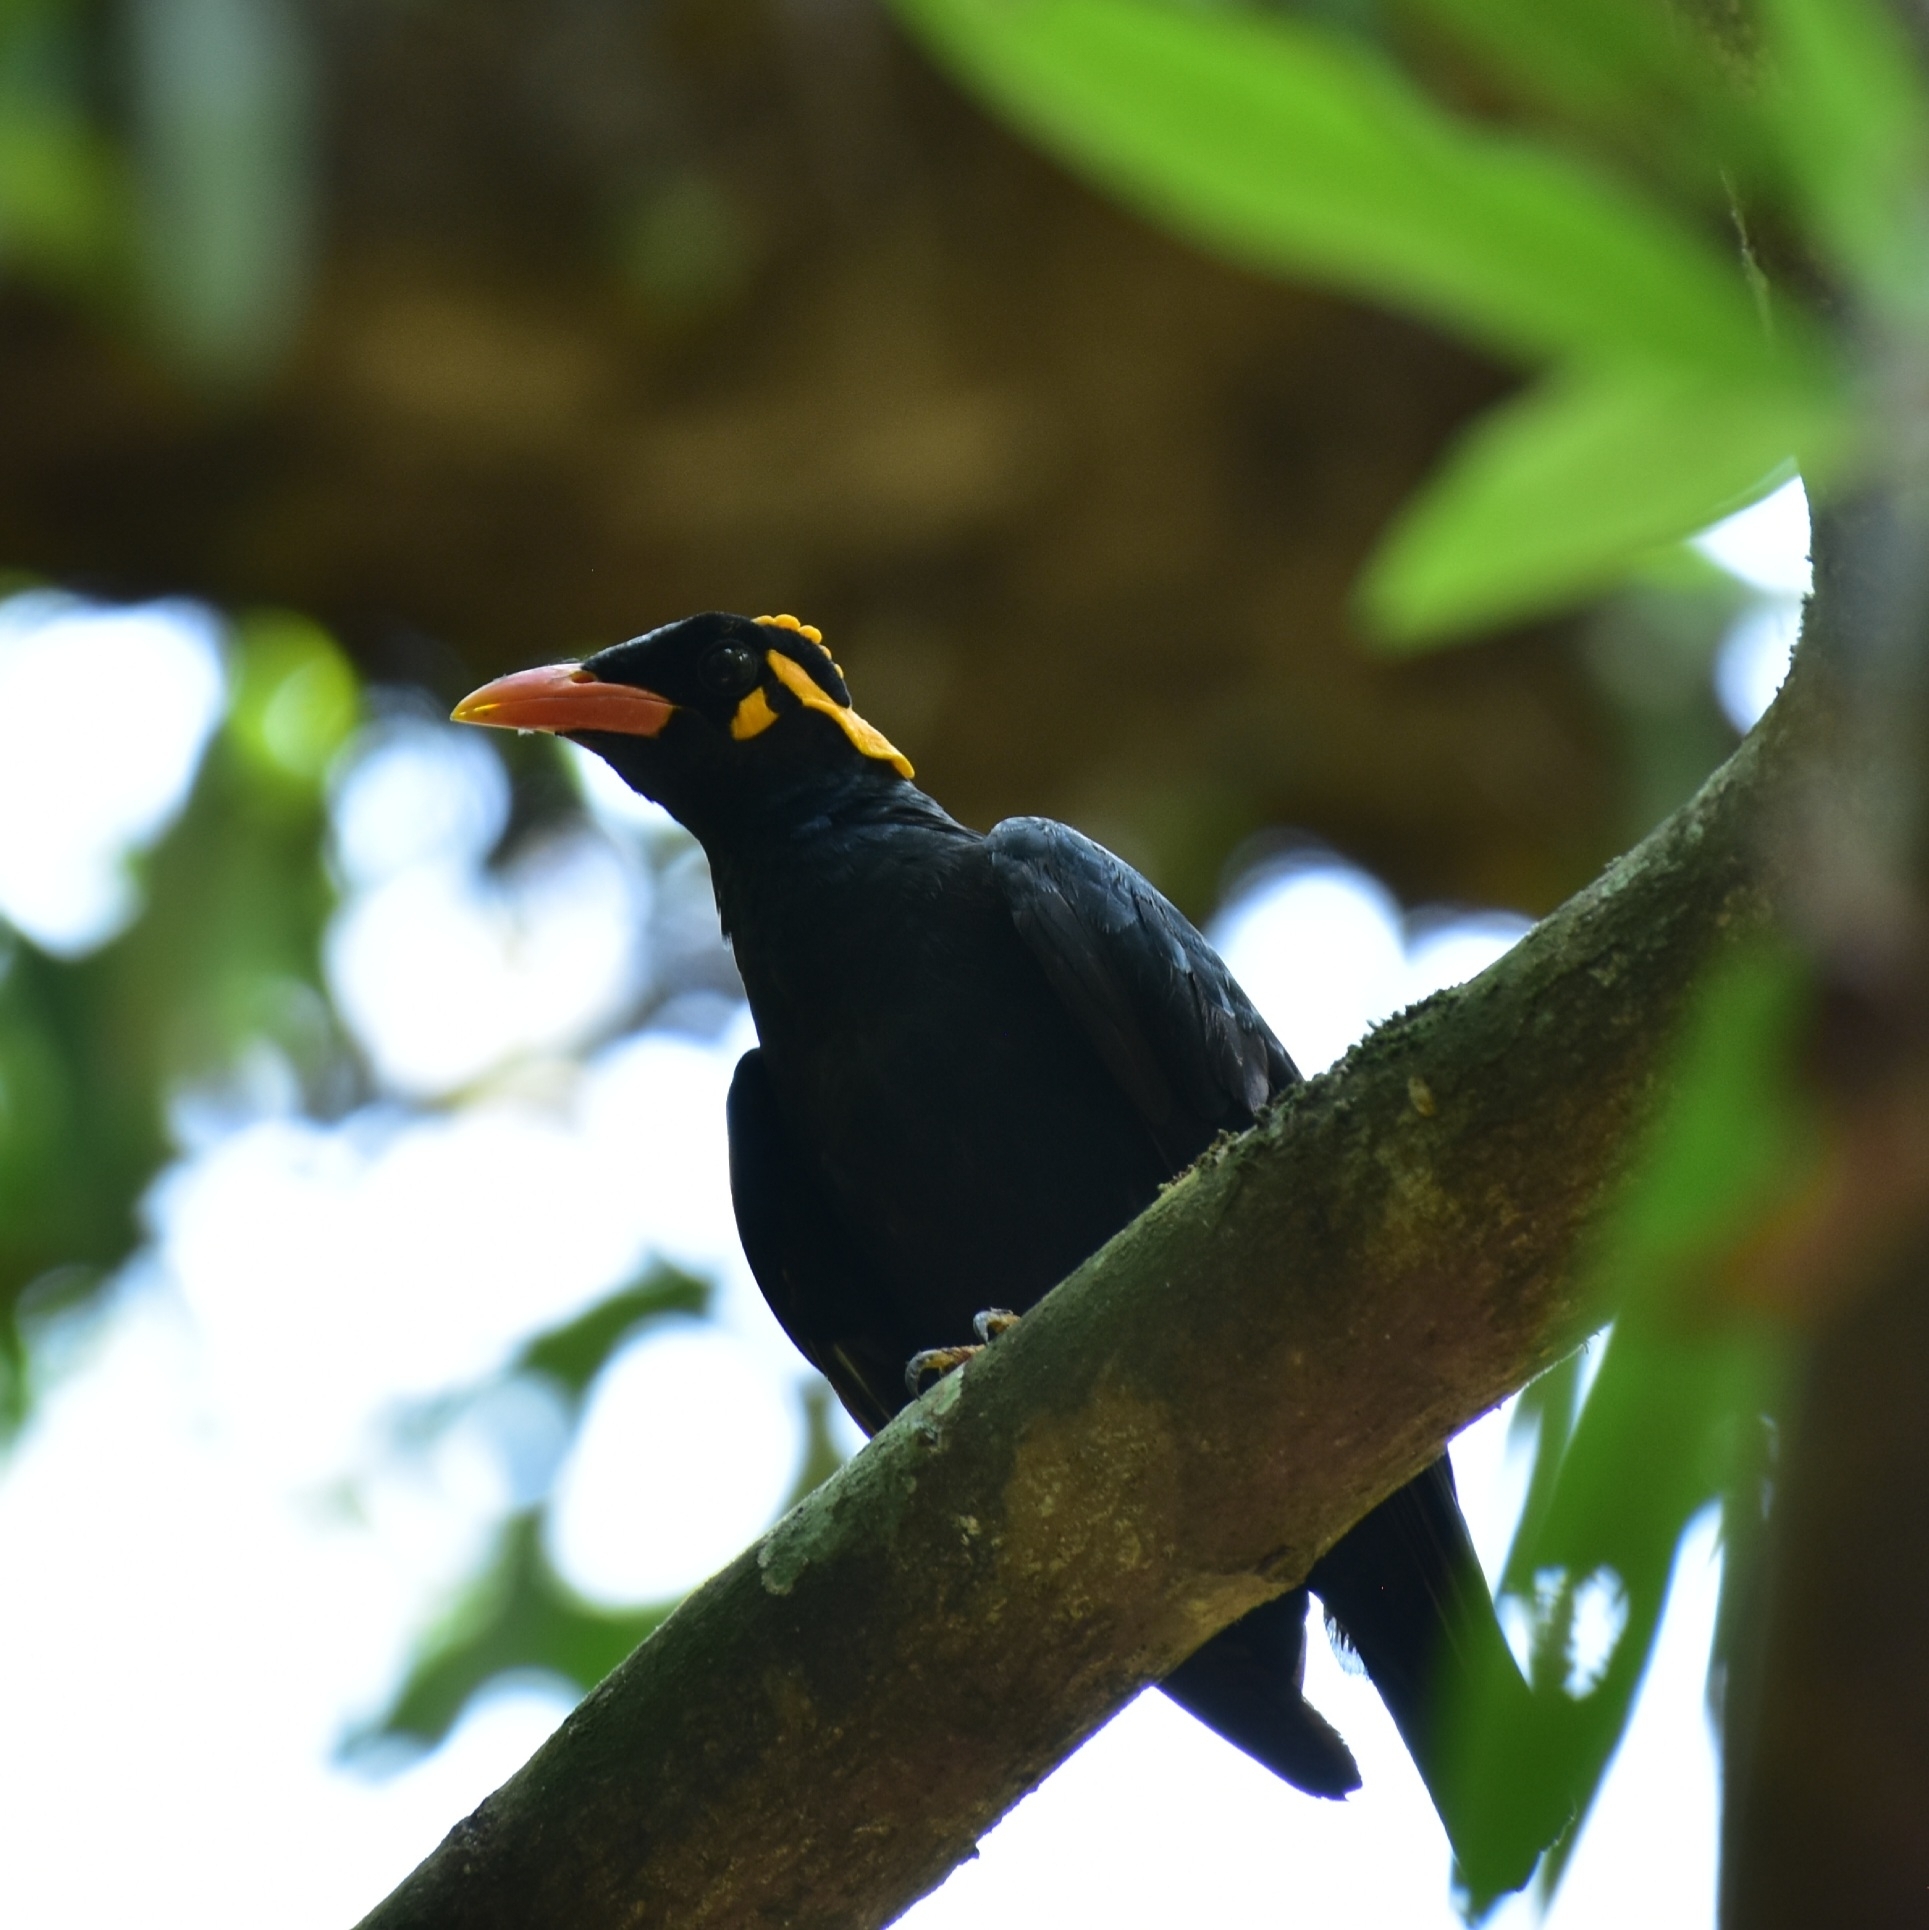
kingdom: Animalia
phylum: Chordata
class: Aves
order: Passeriformes
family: Sturnidae
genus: Gracula
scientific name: Gracula indica
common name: Southern hill myna
